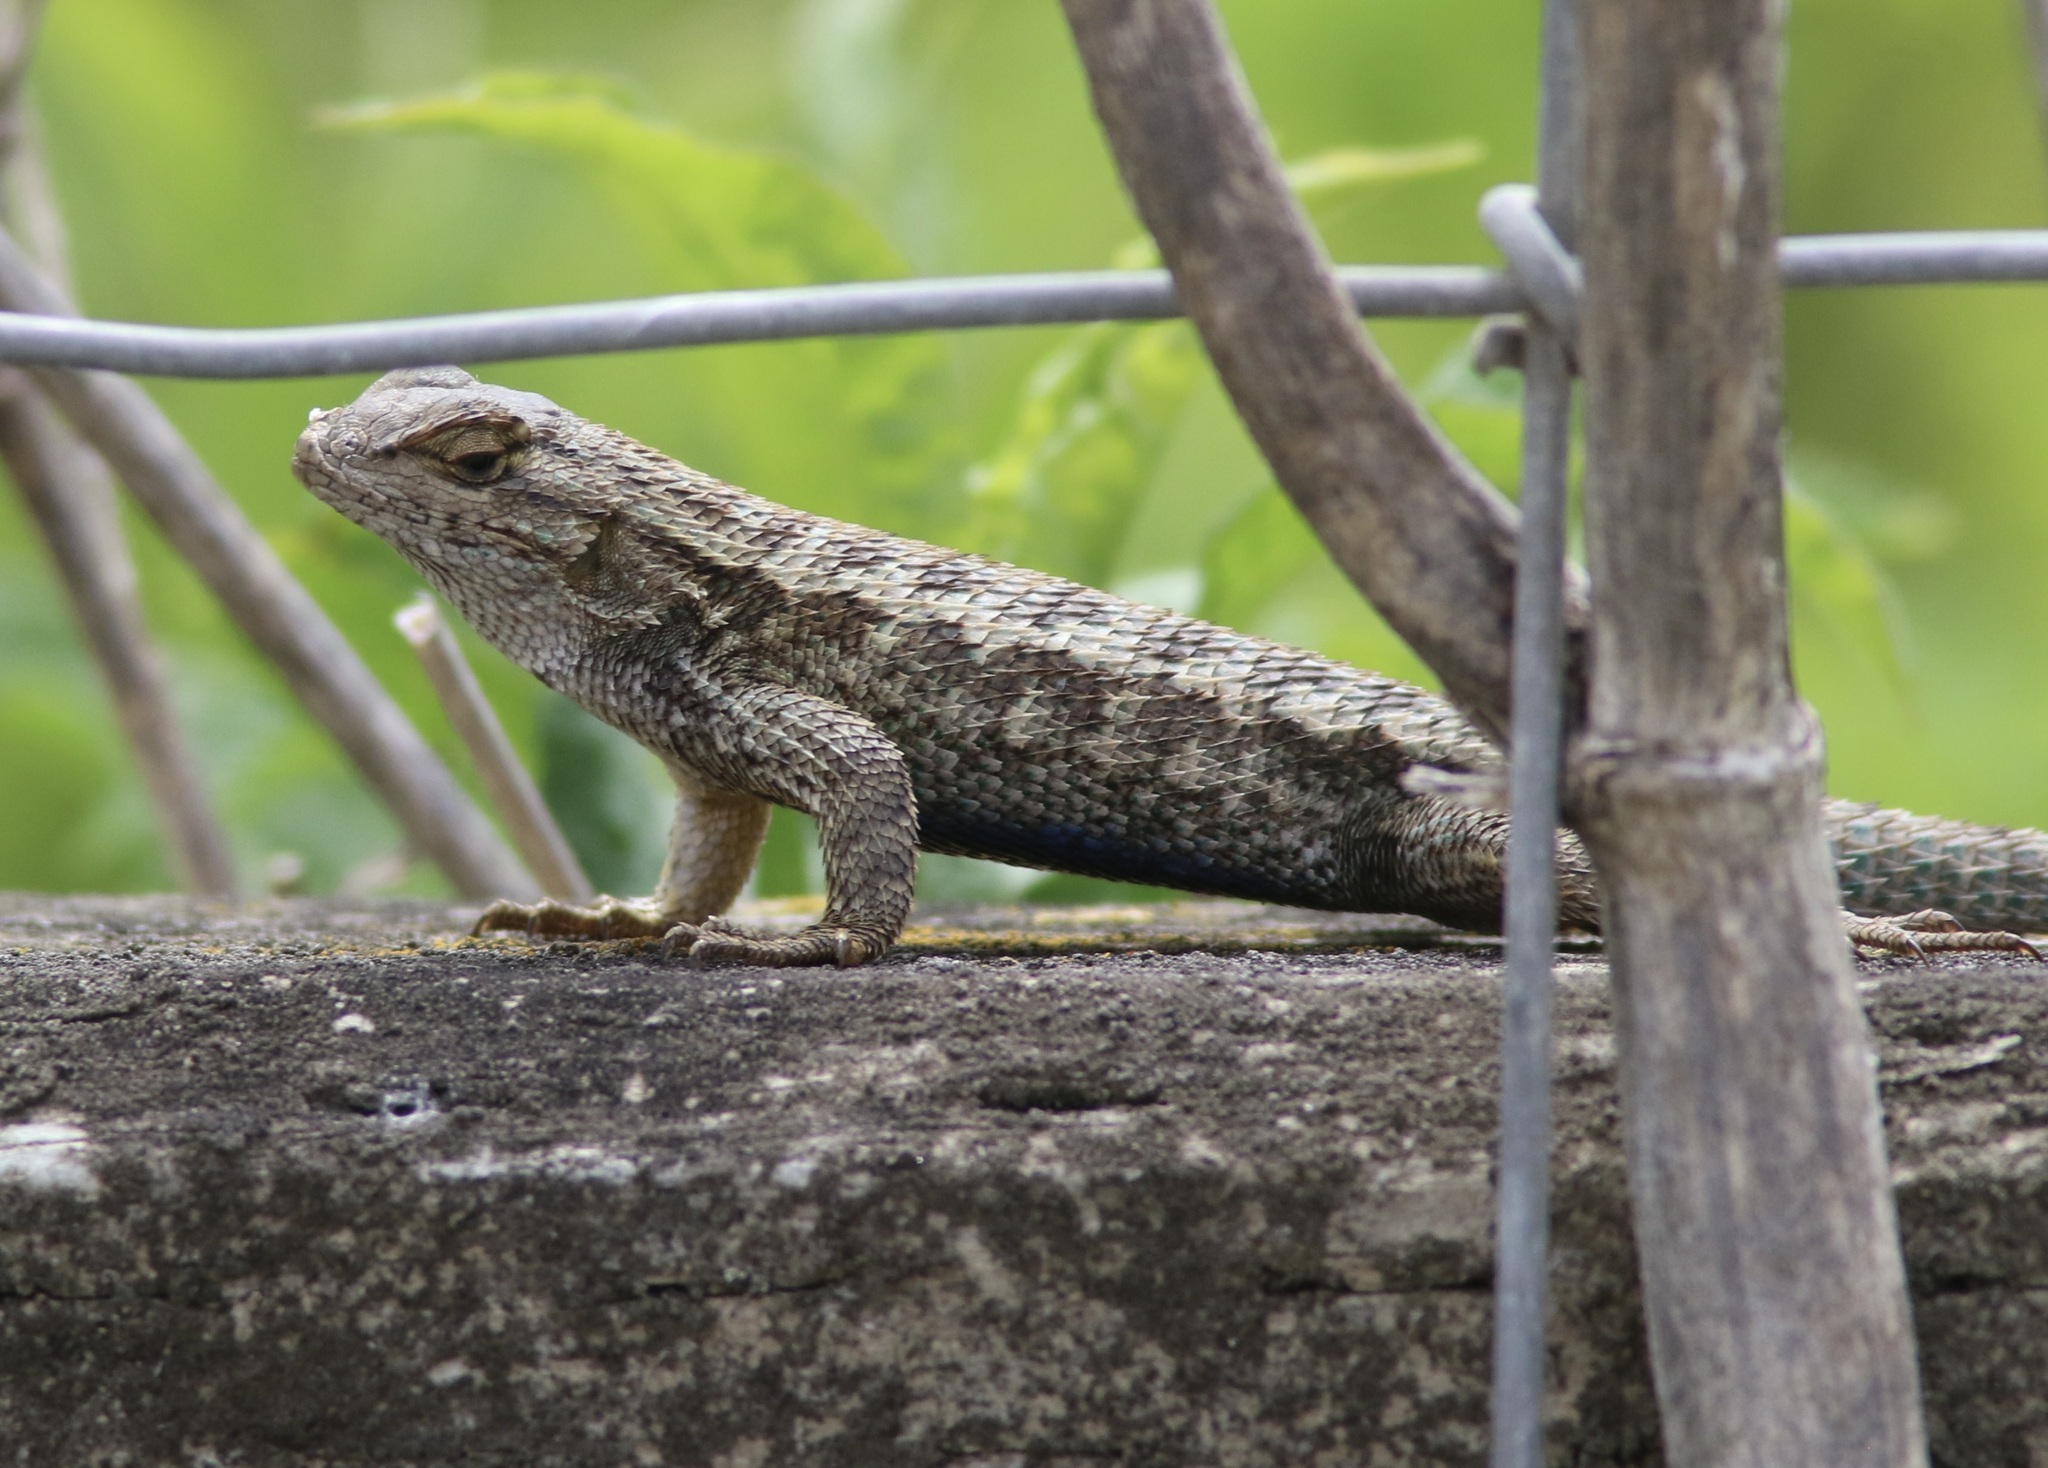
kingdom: Animalia
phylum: Chordata
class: Squamata
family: Phrynosomatidae
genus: Sceloporus
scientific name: Sceloporus occidentalis
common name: Western fence lizard
